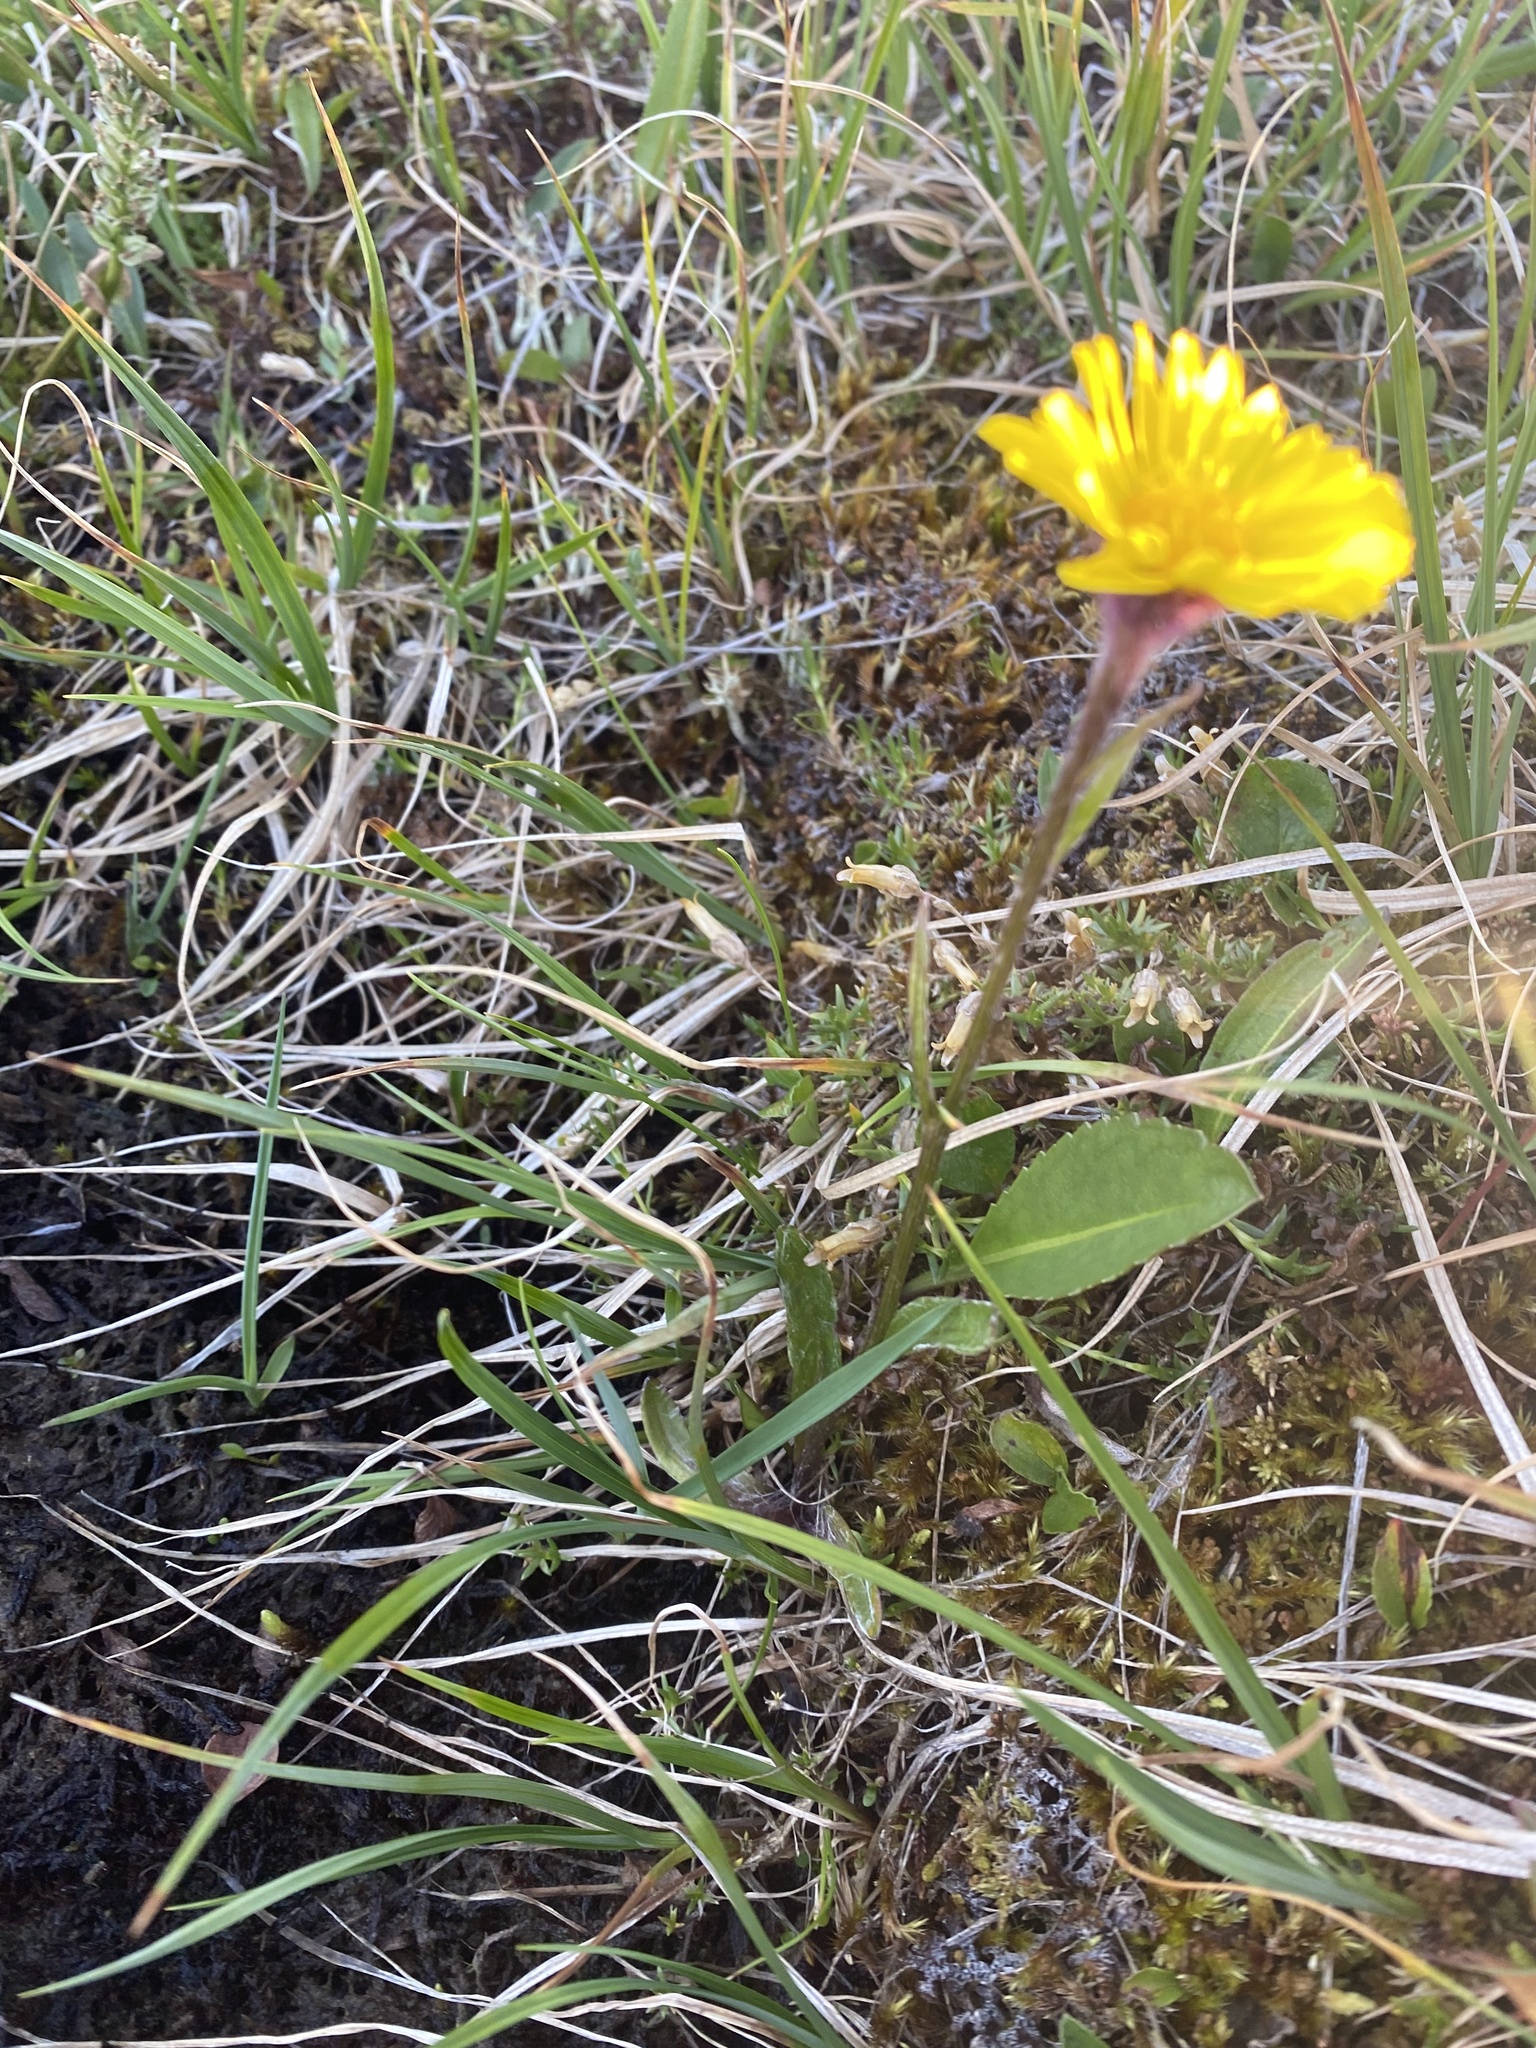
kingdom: Plantae
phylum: Tracheophyta
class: Magnoliopsida
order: Asterales
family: Asteraceae
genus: Tephroseris
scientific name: Tephroseris integrifolia
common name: Field fleawort
